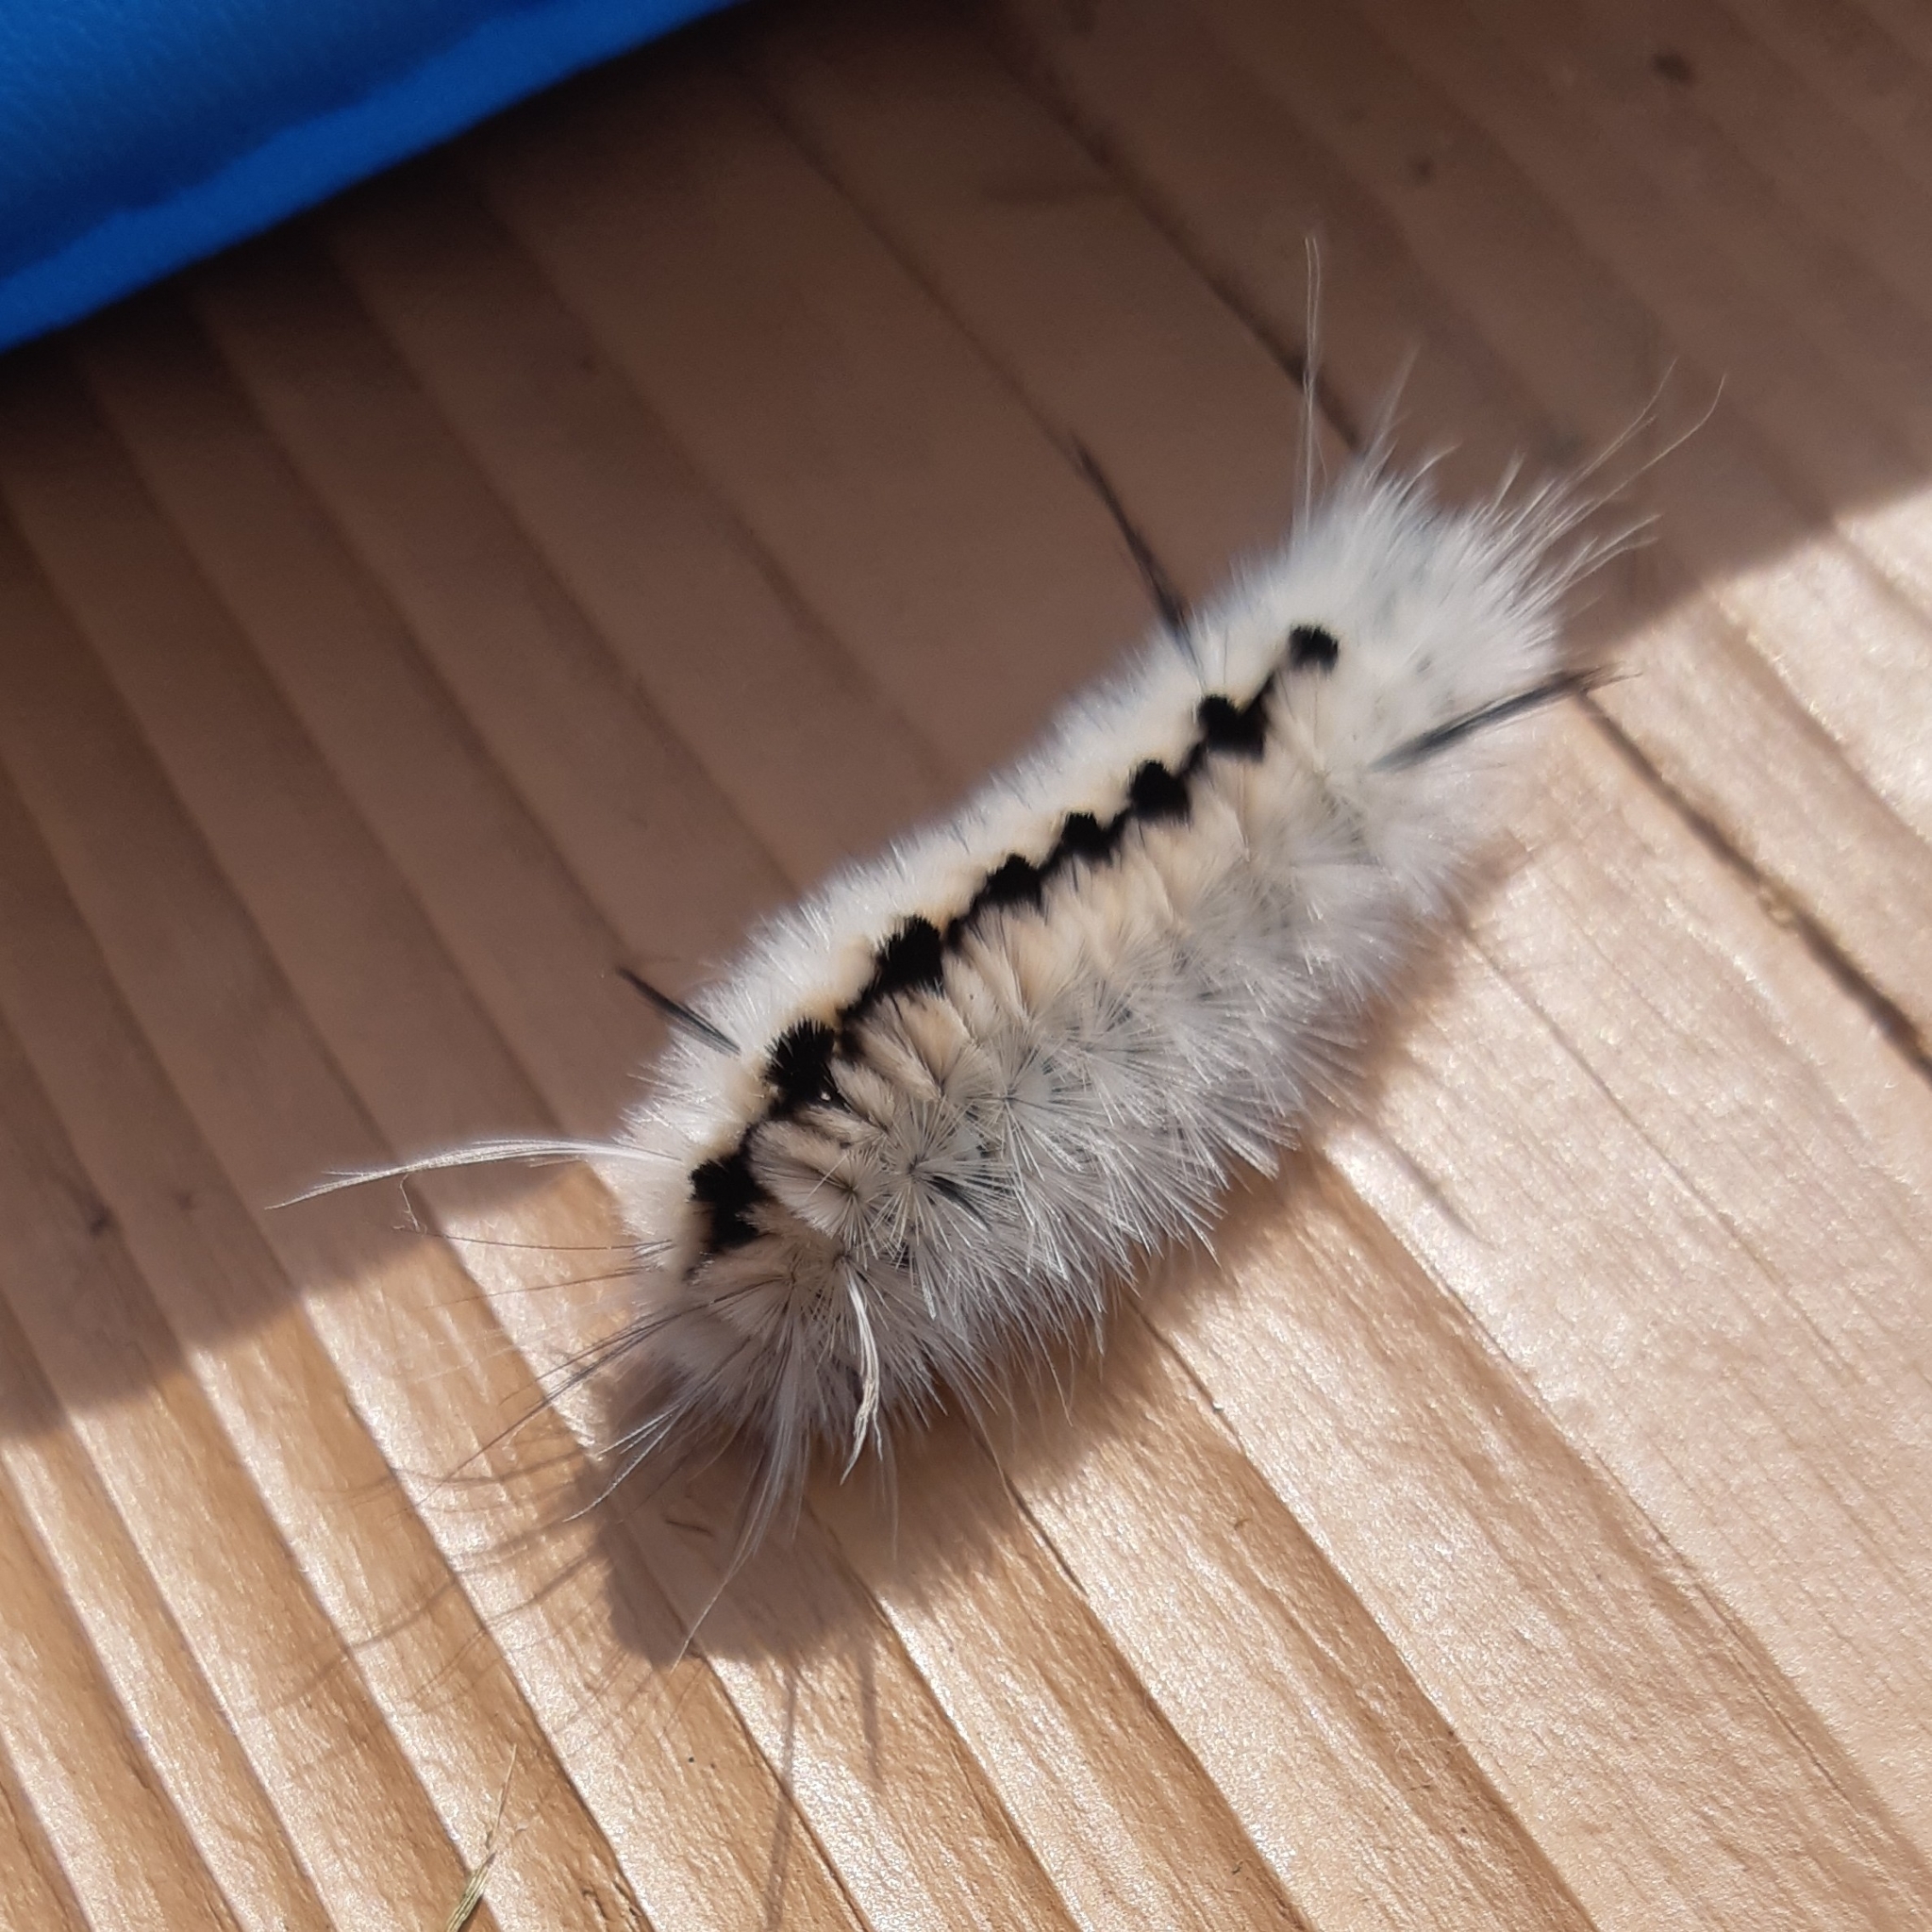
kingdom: Animalia
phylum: Arthropoda
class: Insecta
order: Lepidoptera
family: Erebidae
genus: Lophocampa
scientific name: Lophocampa caryae
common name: Hickory tussock moth
